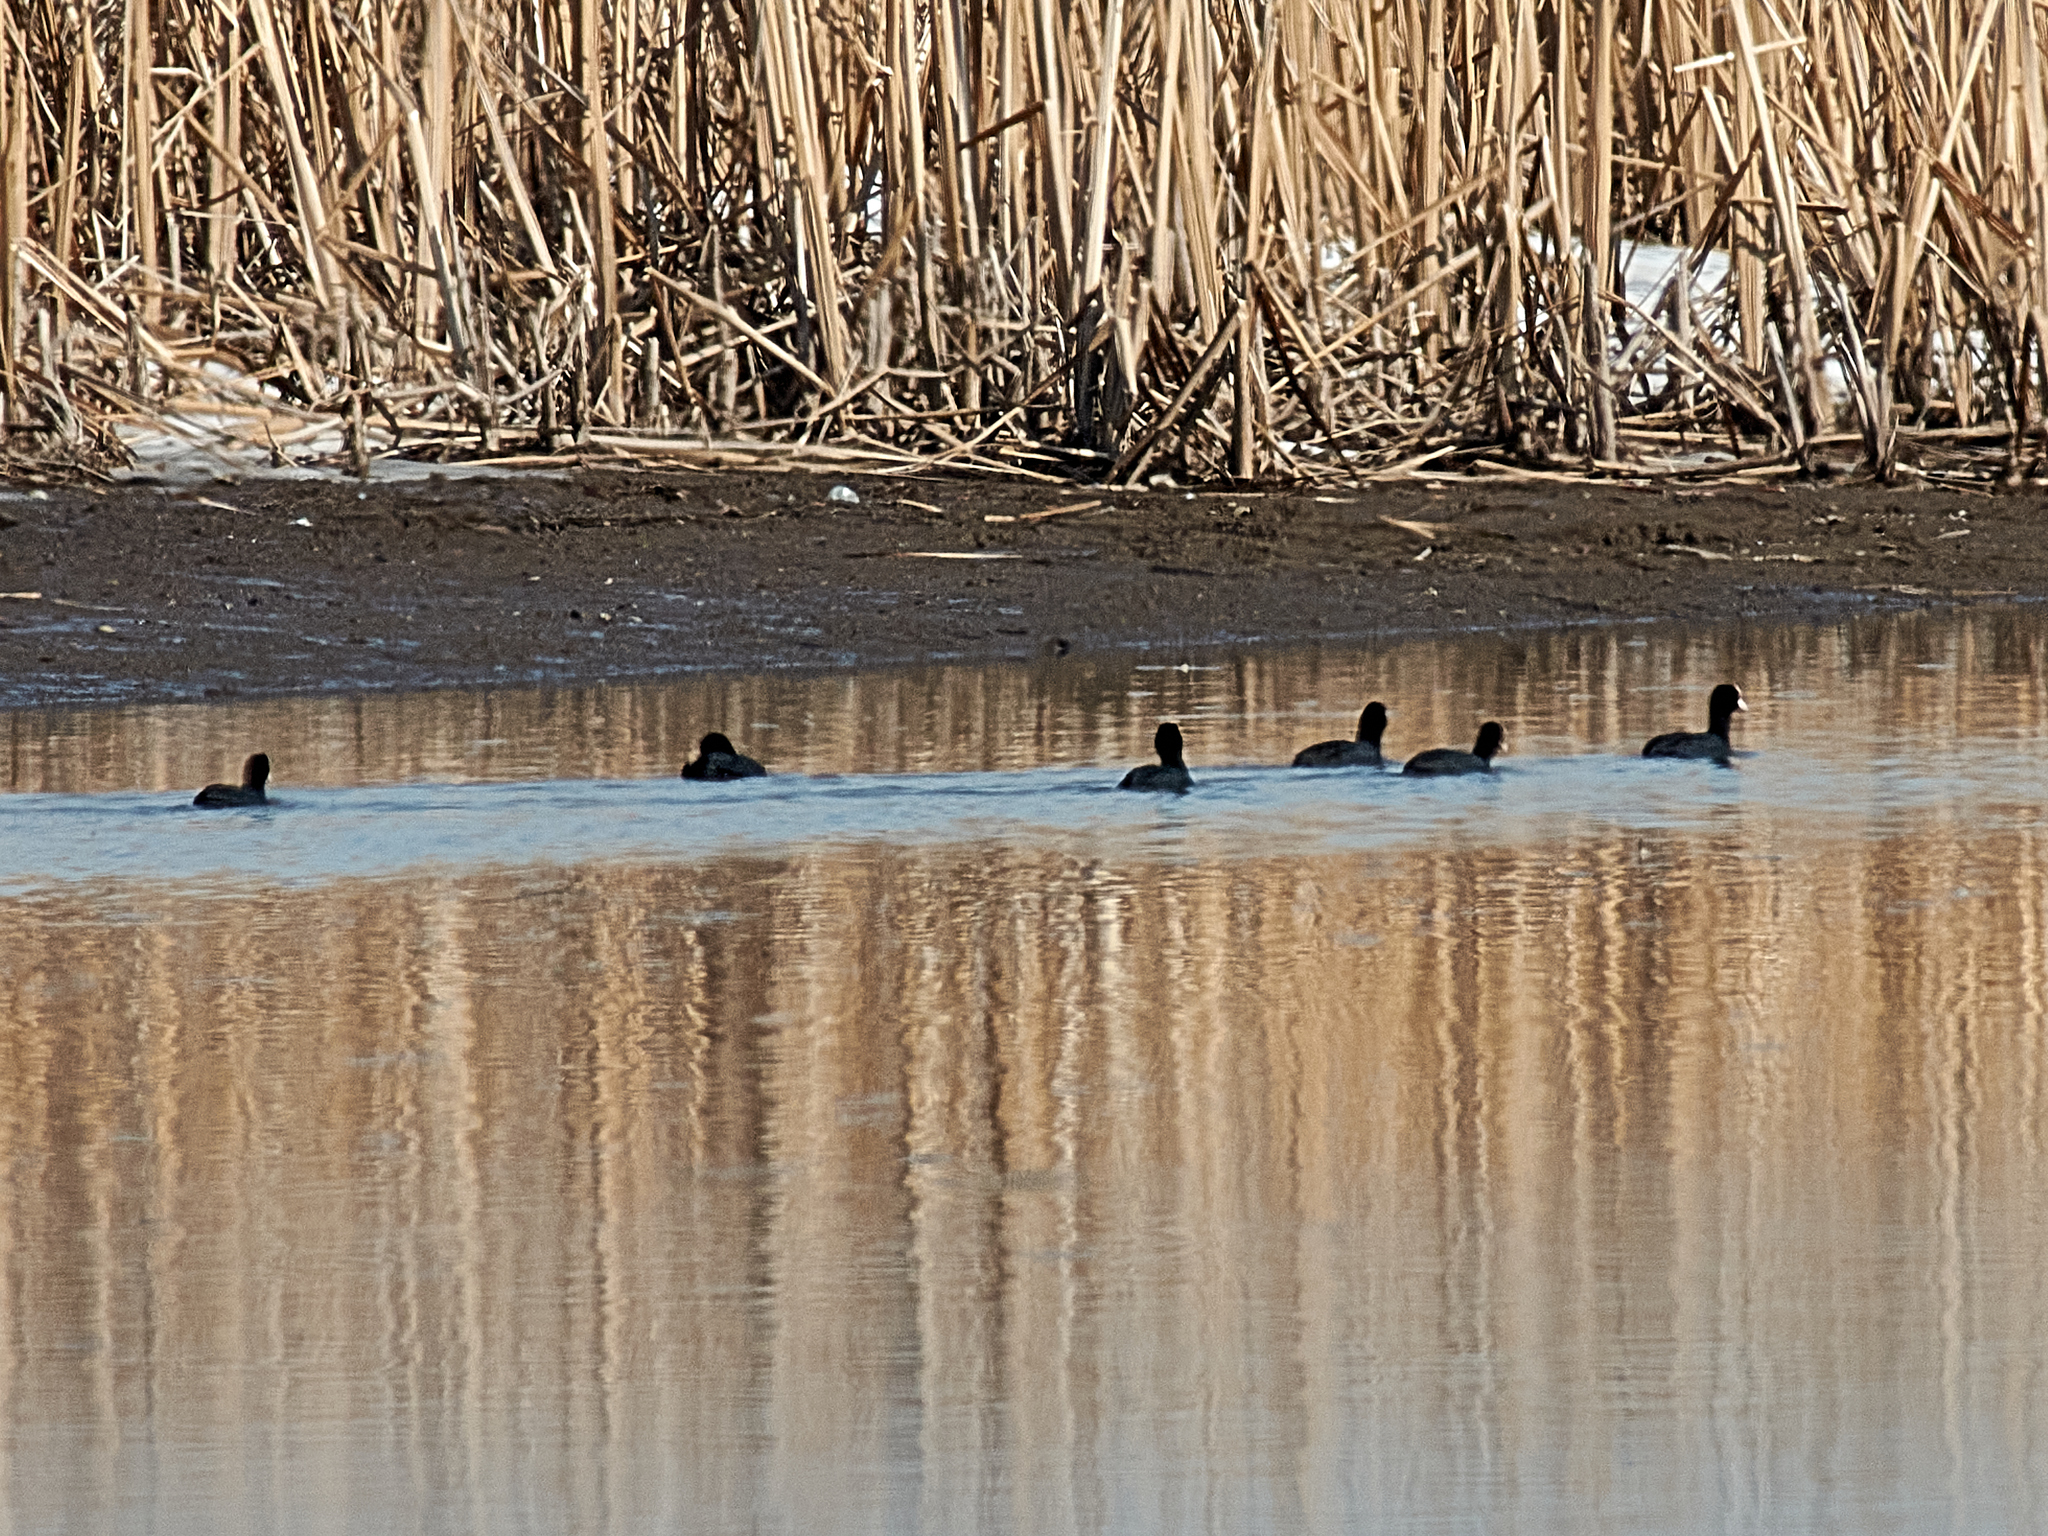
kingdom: Animalia
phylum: Chordata
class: Aves
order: Gruiformes
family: Rallidae
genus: Fulica
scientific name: Fulica atra
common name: Eurasian coot
